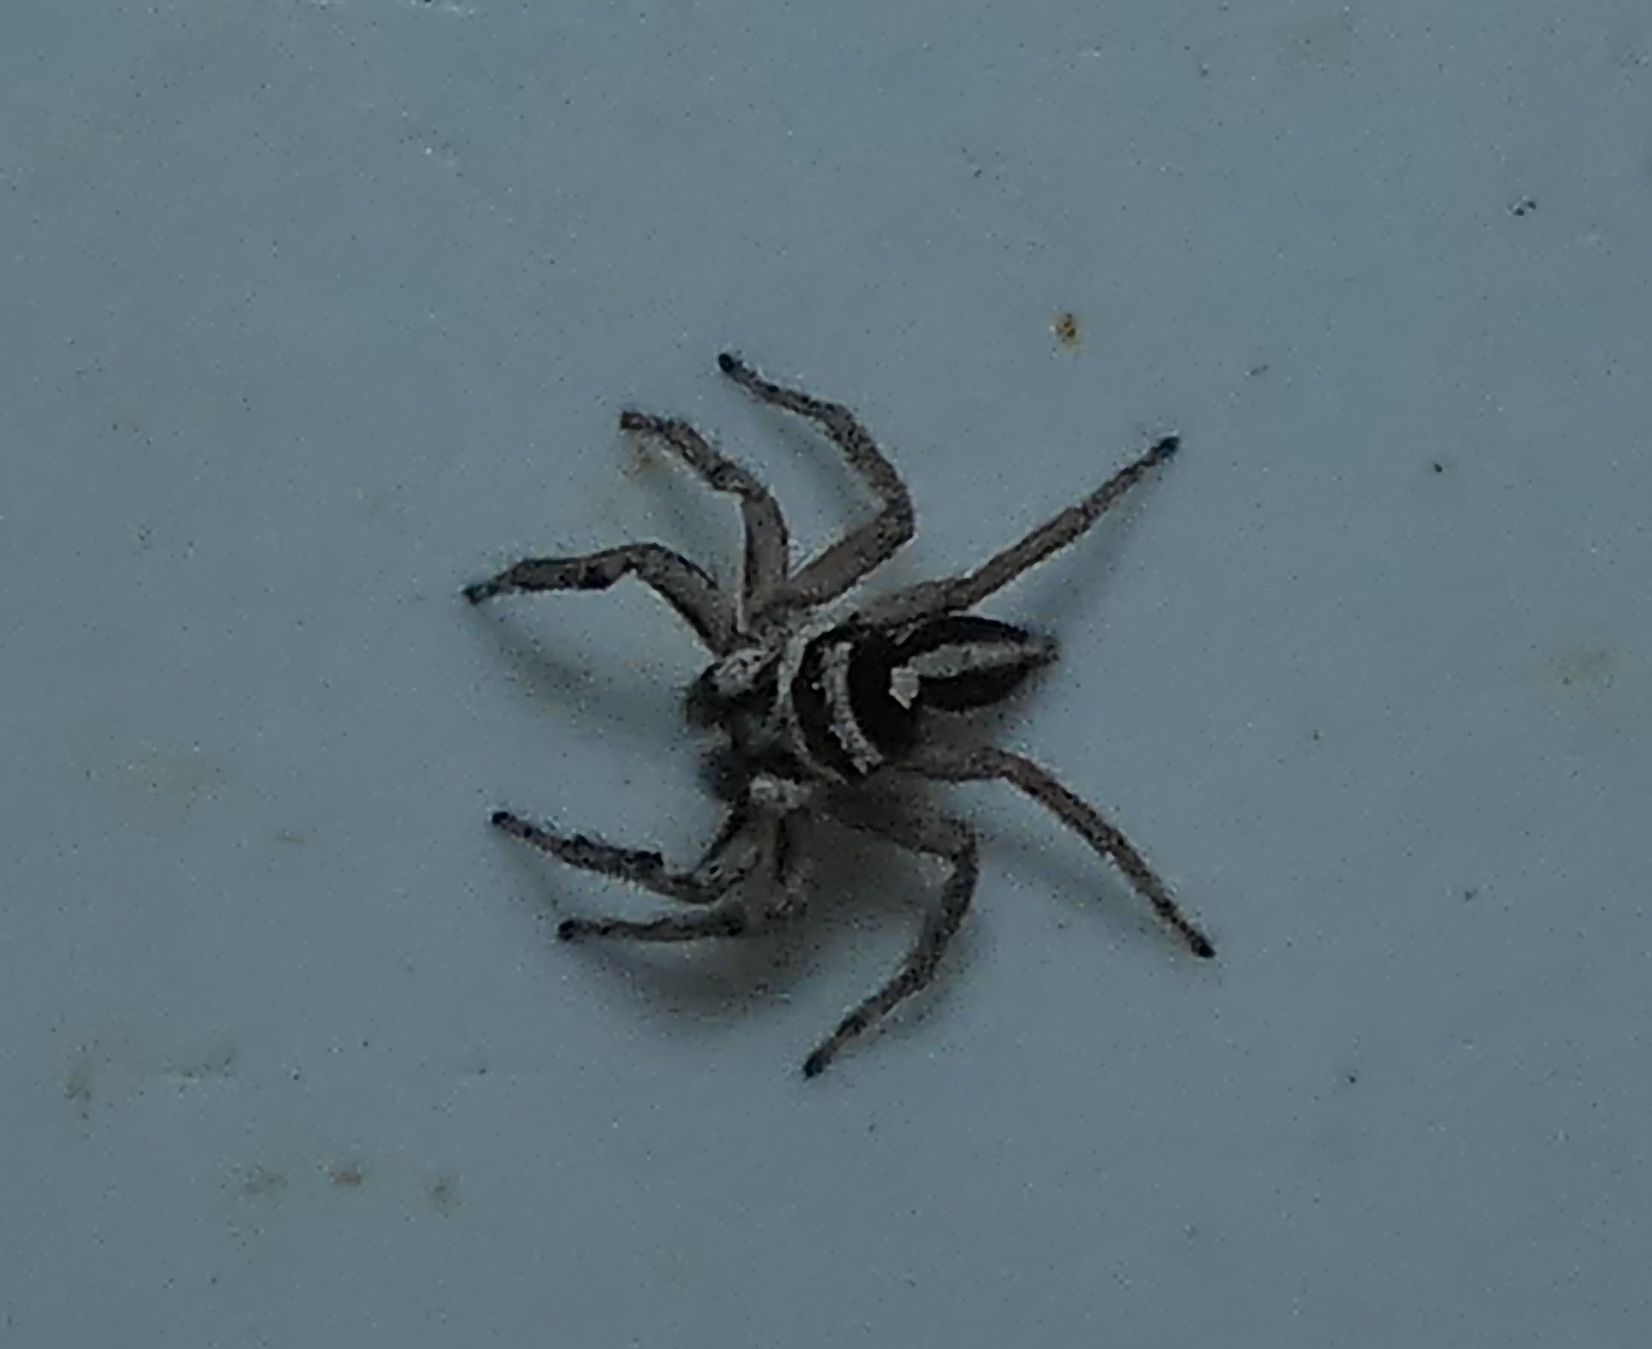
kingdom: Animalia
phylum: Arthropoda
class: Arachnida
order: Araneae
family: Salticidae
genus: Leptofreya
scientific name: Leptofreya ambigua
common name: Jumping spider
